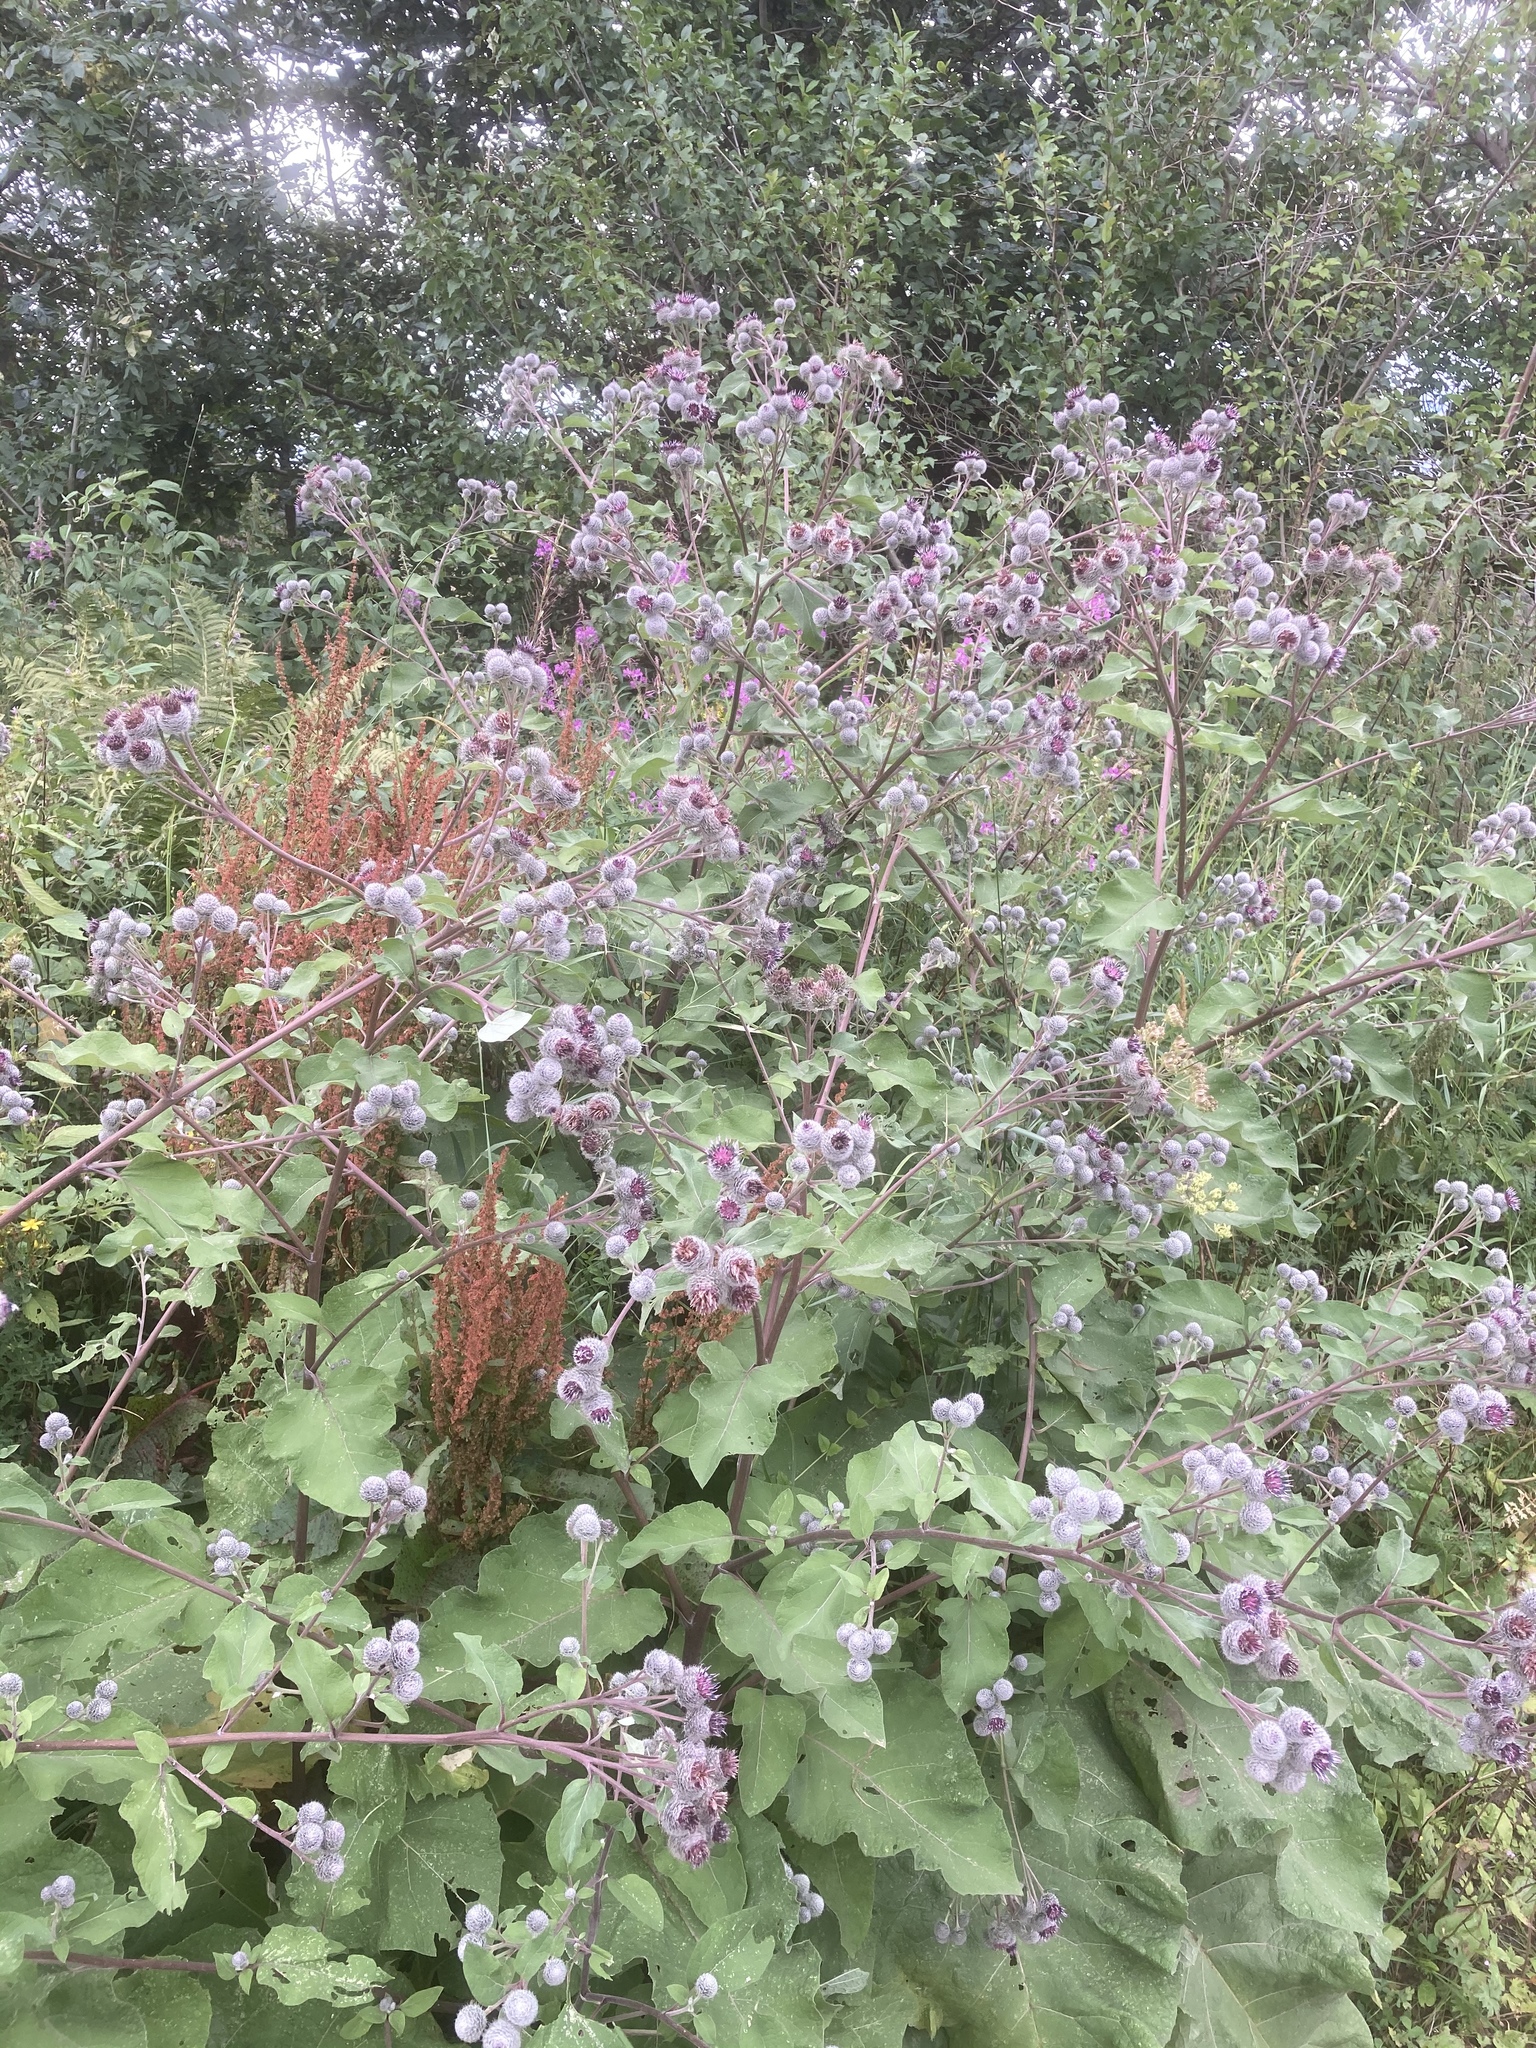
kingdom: Plantae
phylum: Tracheophyta
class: Magnoliopsida
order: Asterales
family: Asteraceae
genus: Arctium
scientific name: Arctium tomentosum
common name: Woolly burdock
